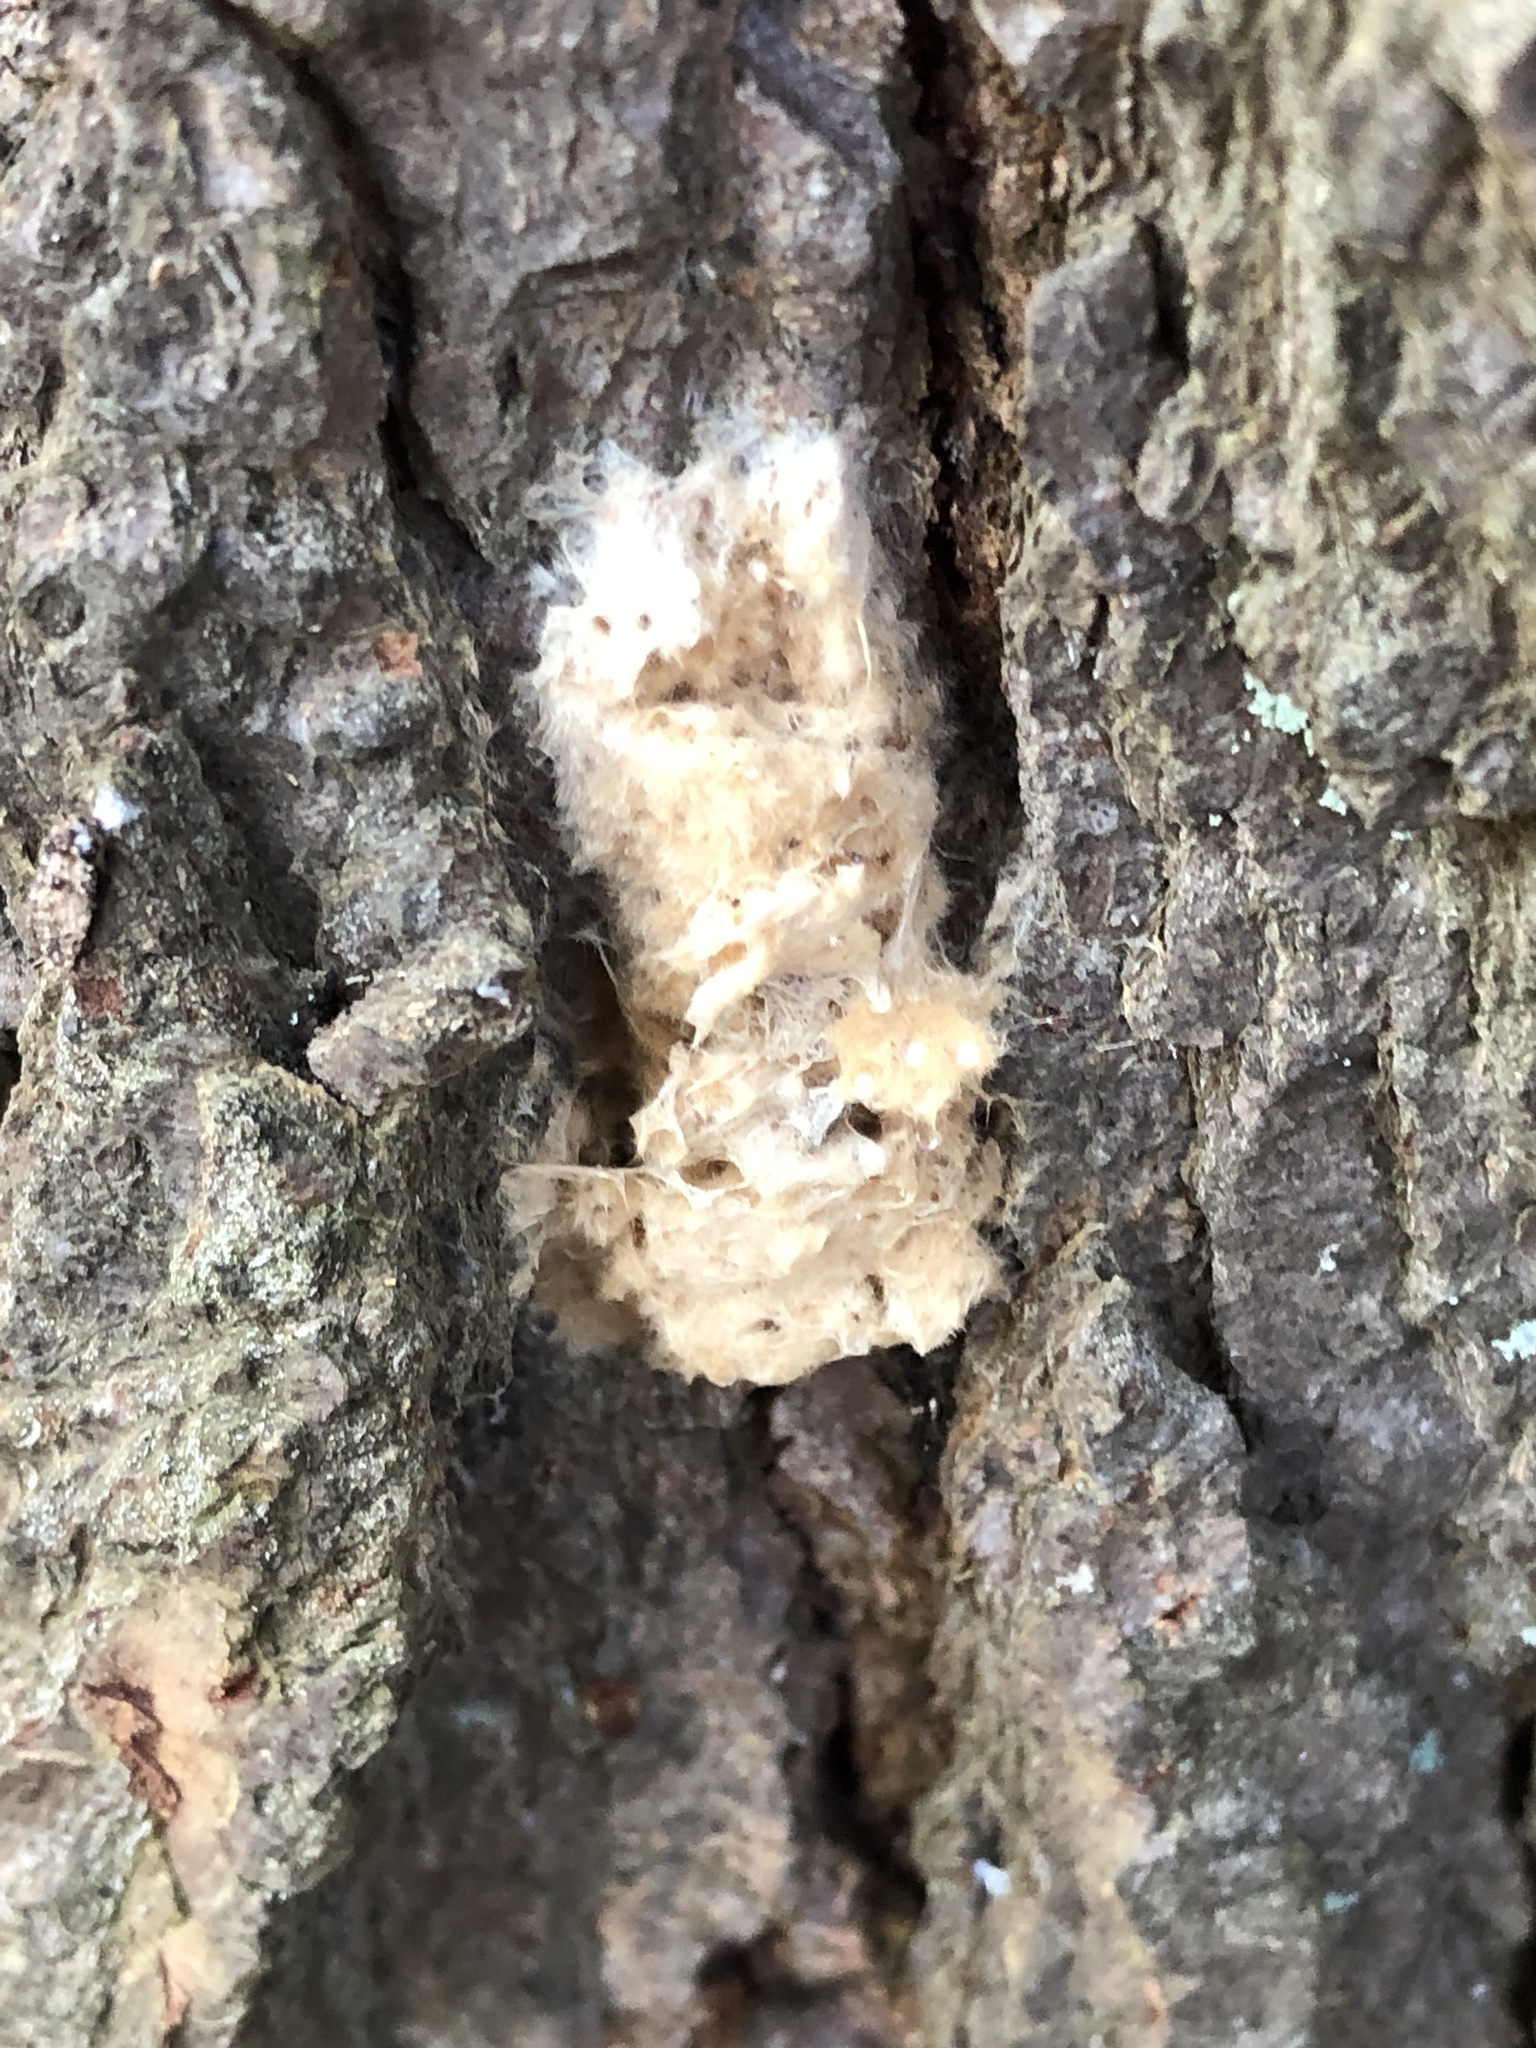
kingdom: Animalia
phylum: Arthropoda
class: Insecta
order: Lepidoptera
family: Erebidae
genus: Lymantria
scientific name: Lymantria dispar
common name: Gypsy moth
